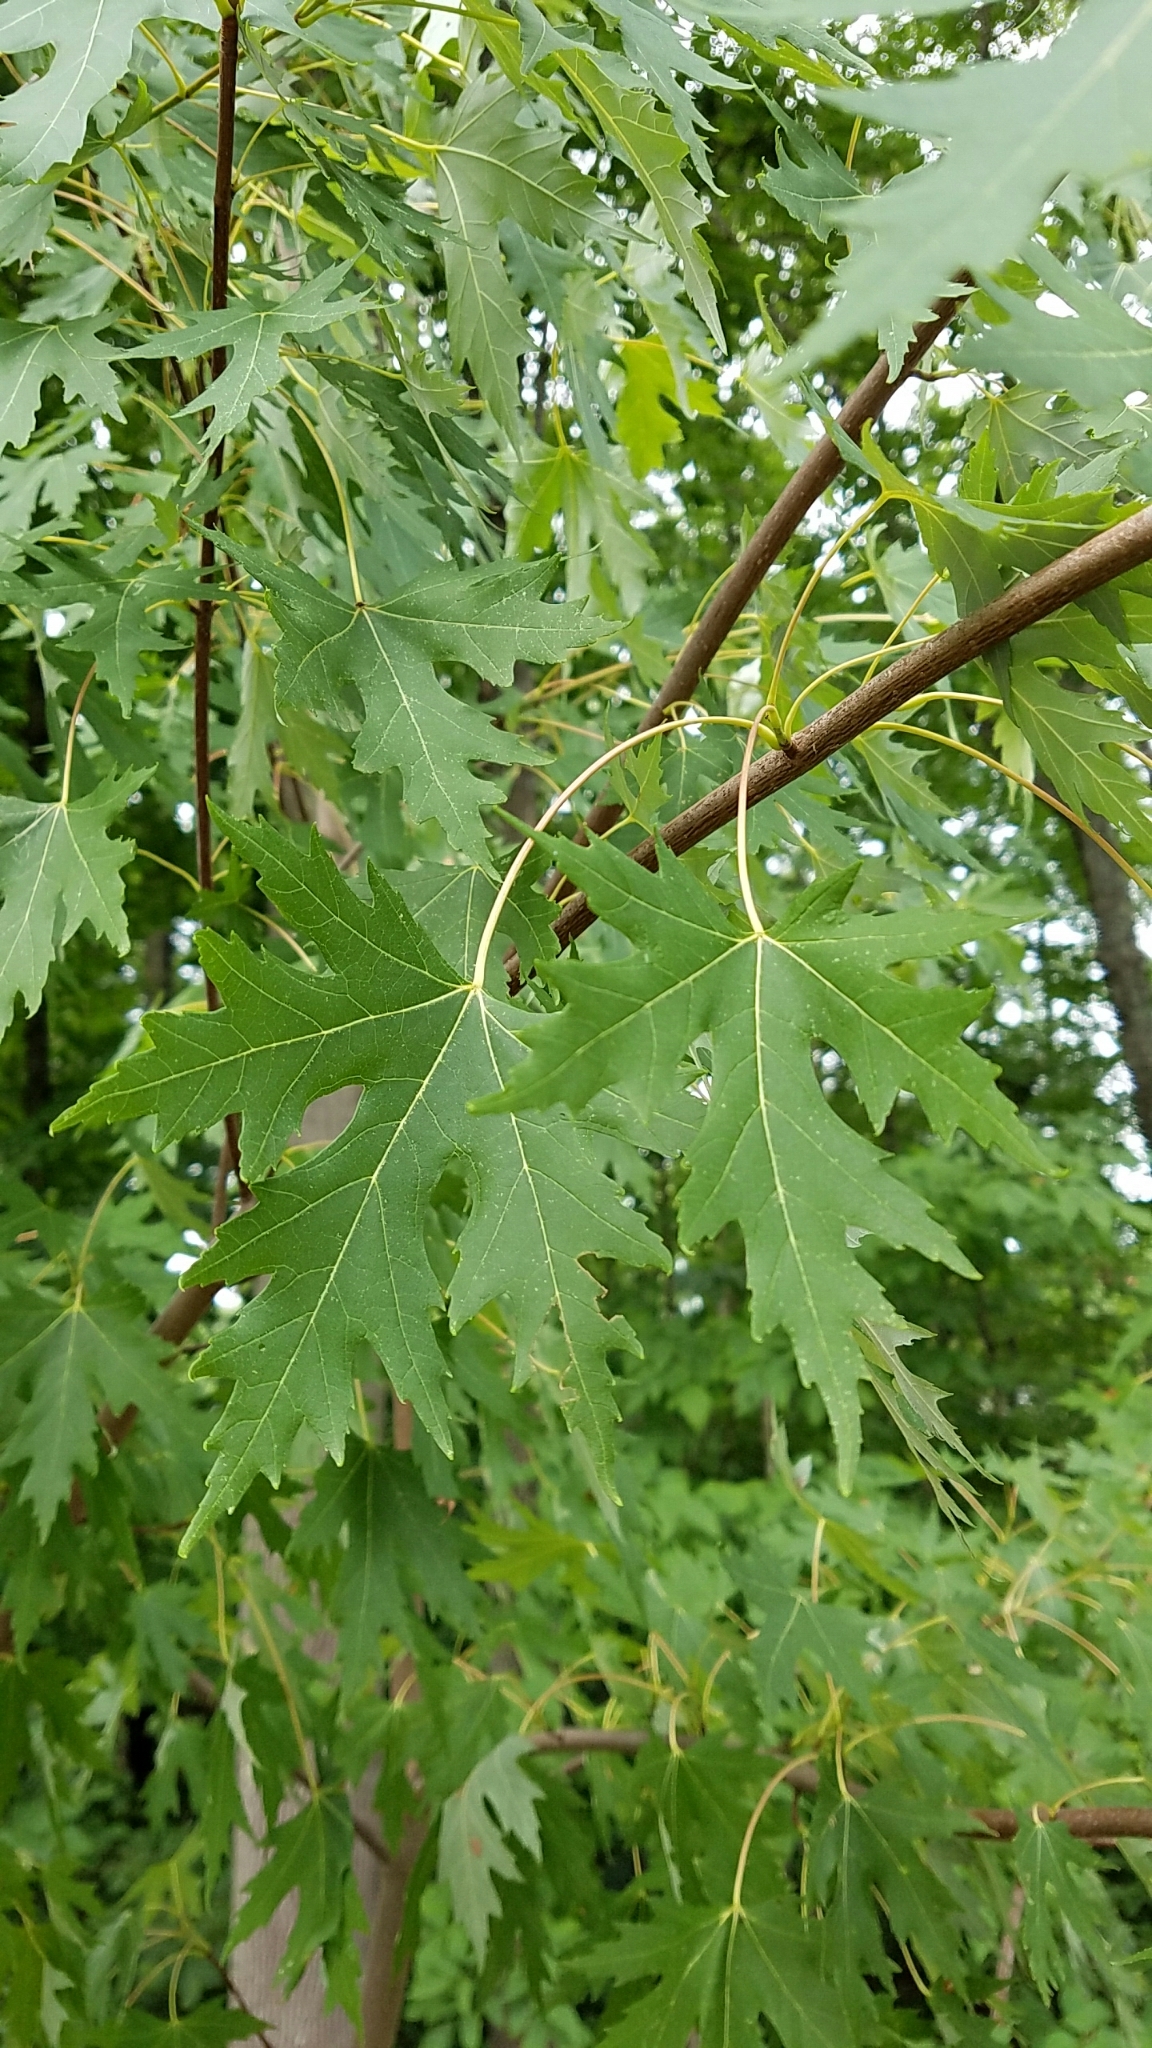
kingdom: Plantae
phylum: Tracheophyta
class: Magnoliopsida
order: Sapindales
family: Sapindaceae
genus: Acer
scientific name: Acer saccharinum
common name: Silver maple
